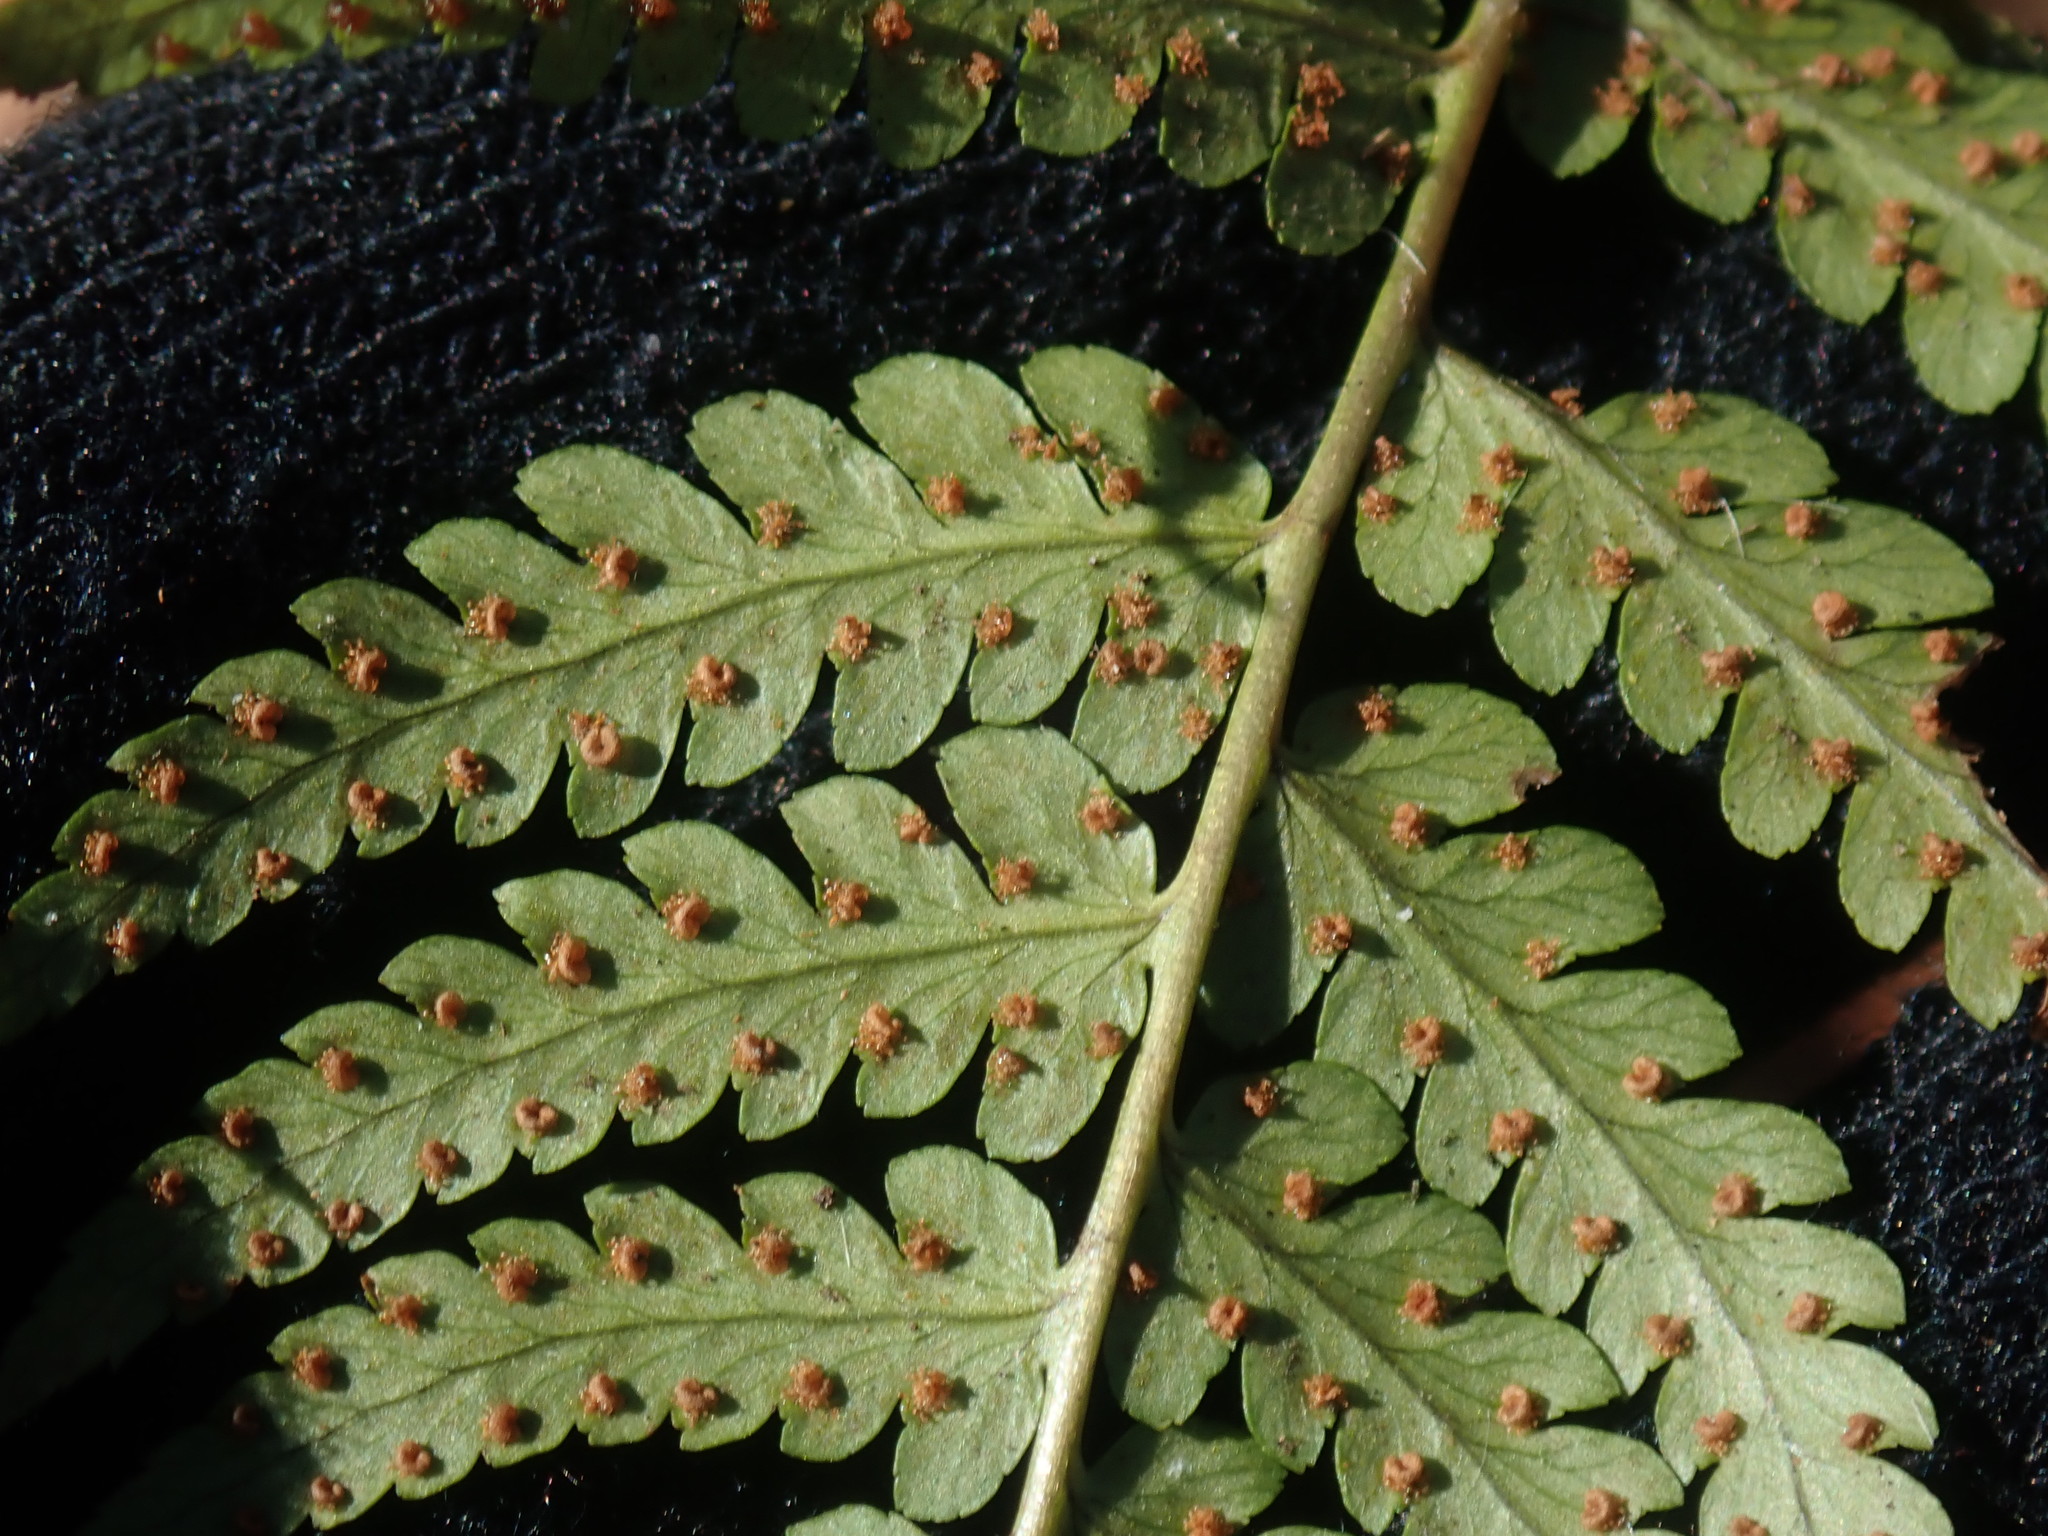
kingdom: Plantae
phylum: Tracheophyta
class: Polypodiopsida
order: Polypodiales
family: Dryopteridaceae
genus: Dryopteris
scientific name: Dryopteris marginalis
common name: Marginal wood fern
